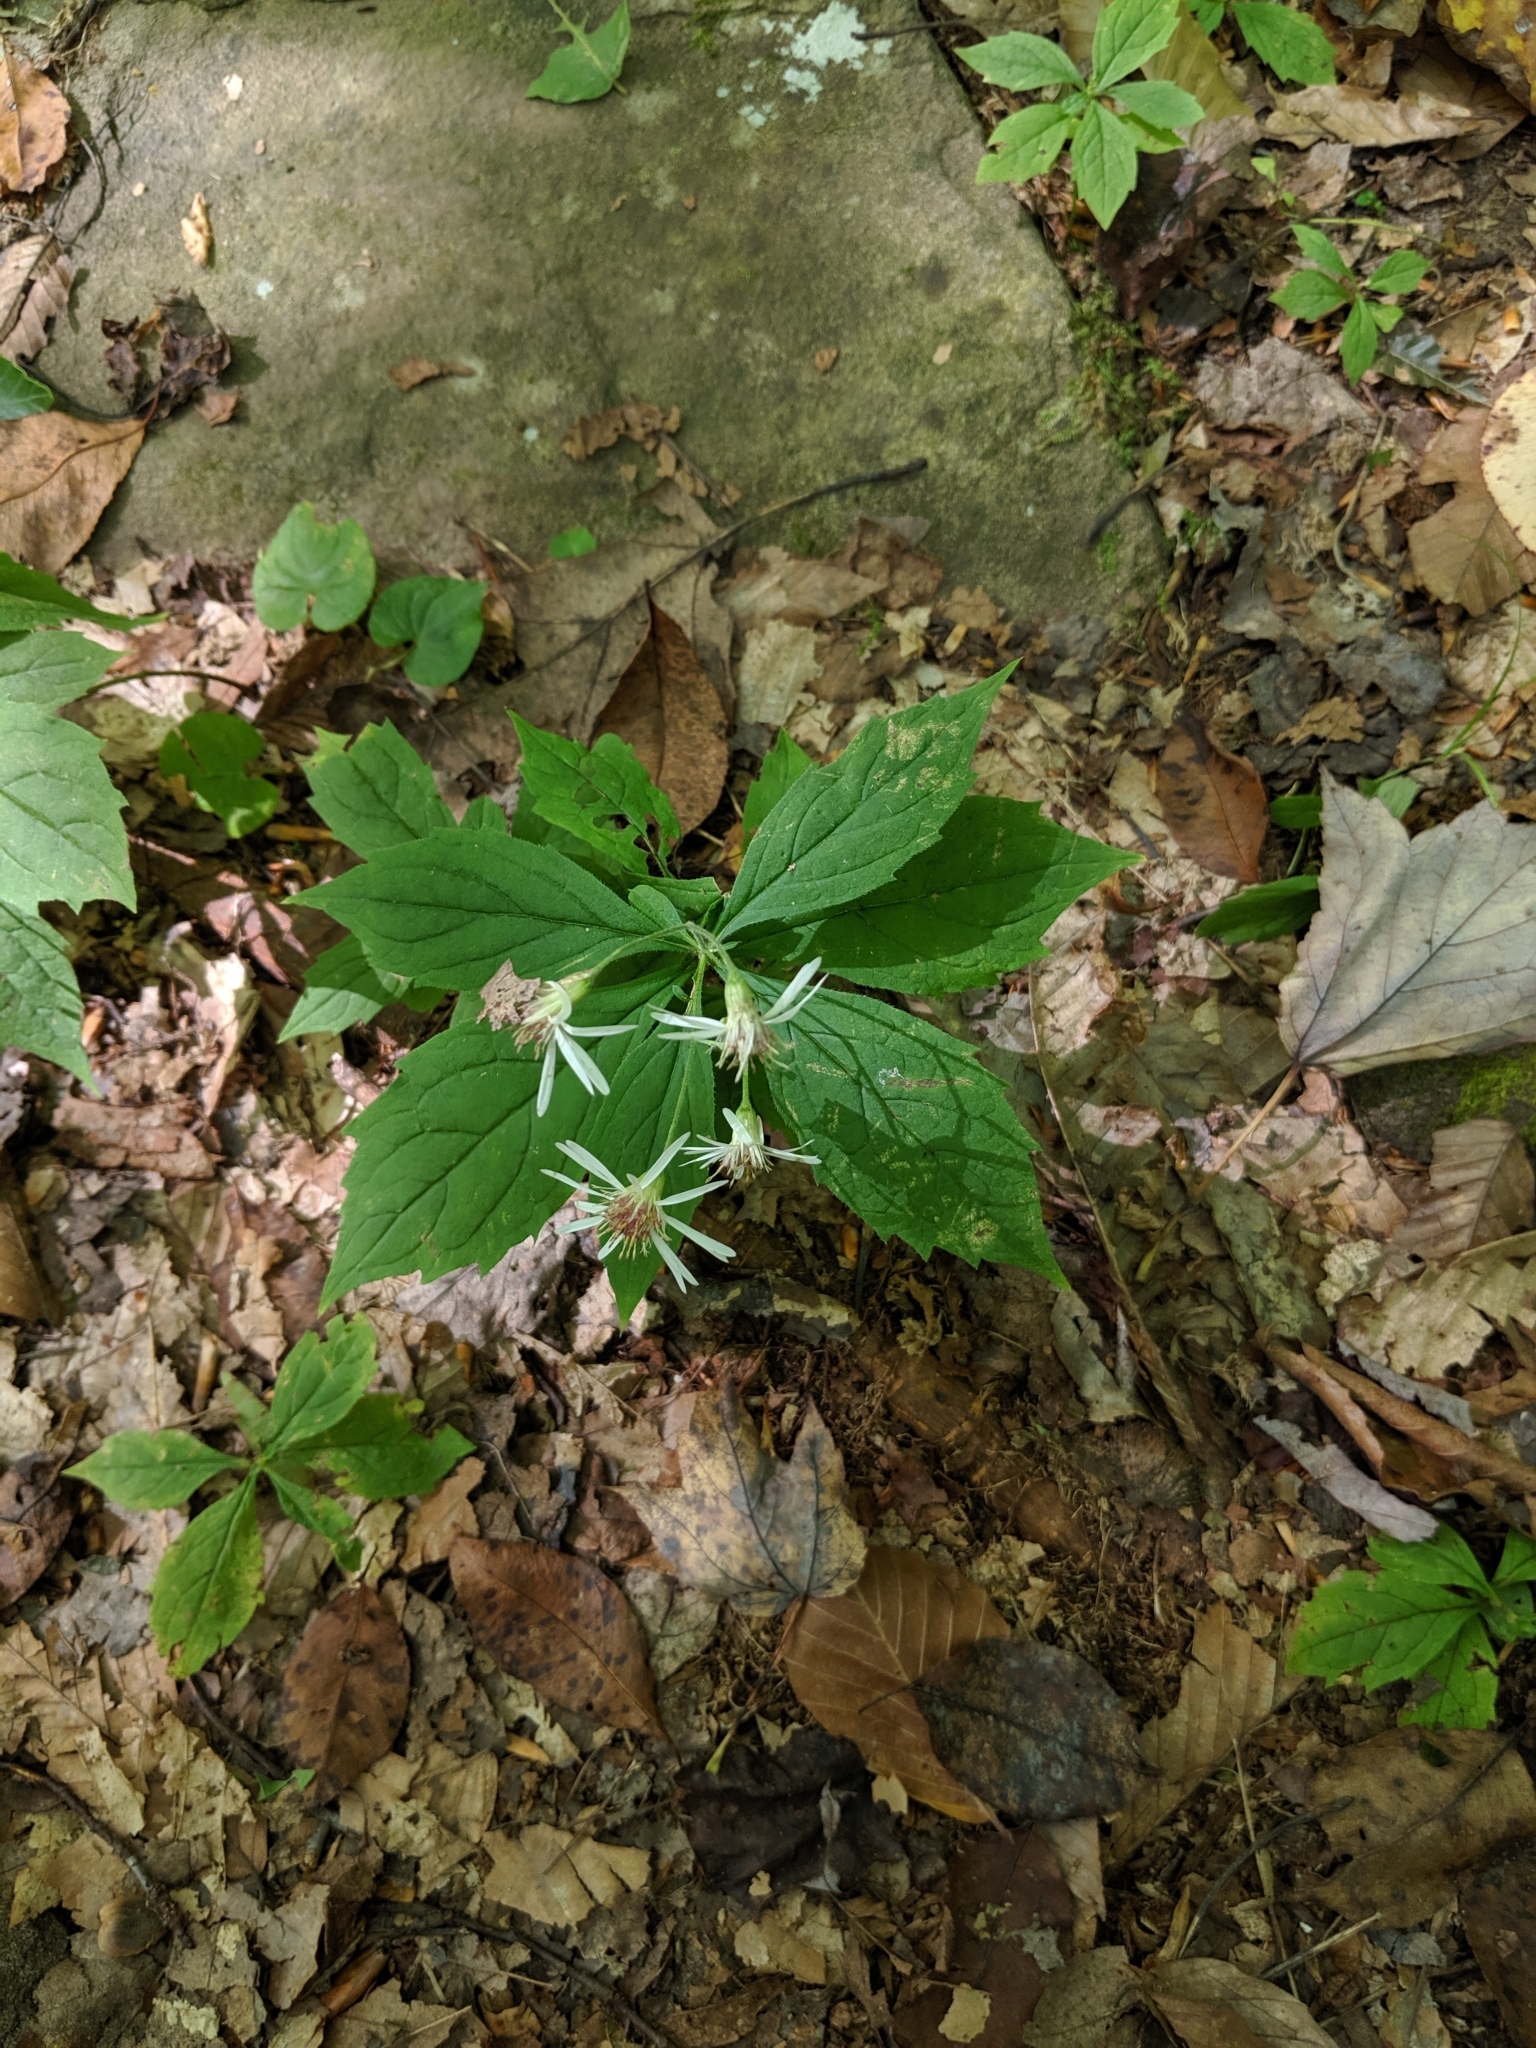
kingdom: Plantae
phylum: Tracheophyta
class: Magnoliopsida
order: Asterales
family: Asteraceae
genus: Oclemena
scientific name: Oclemena acuminata
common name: Mountain aster
